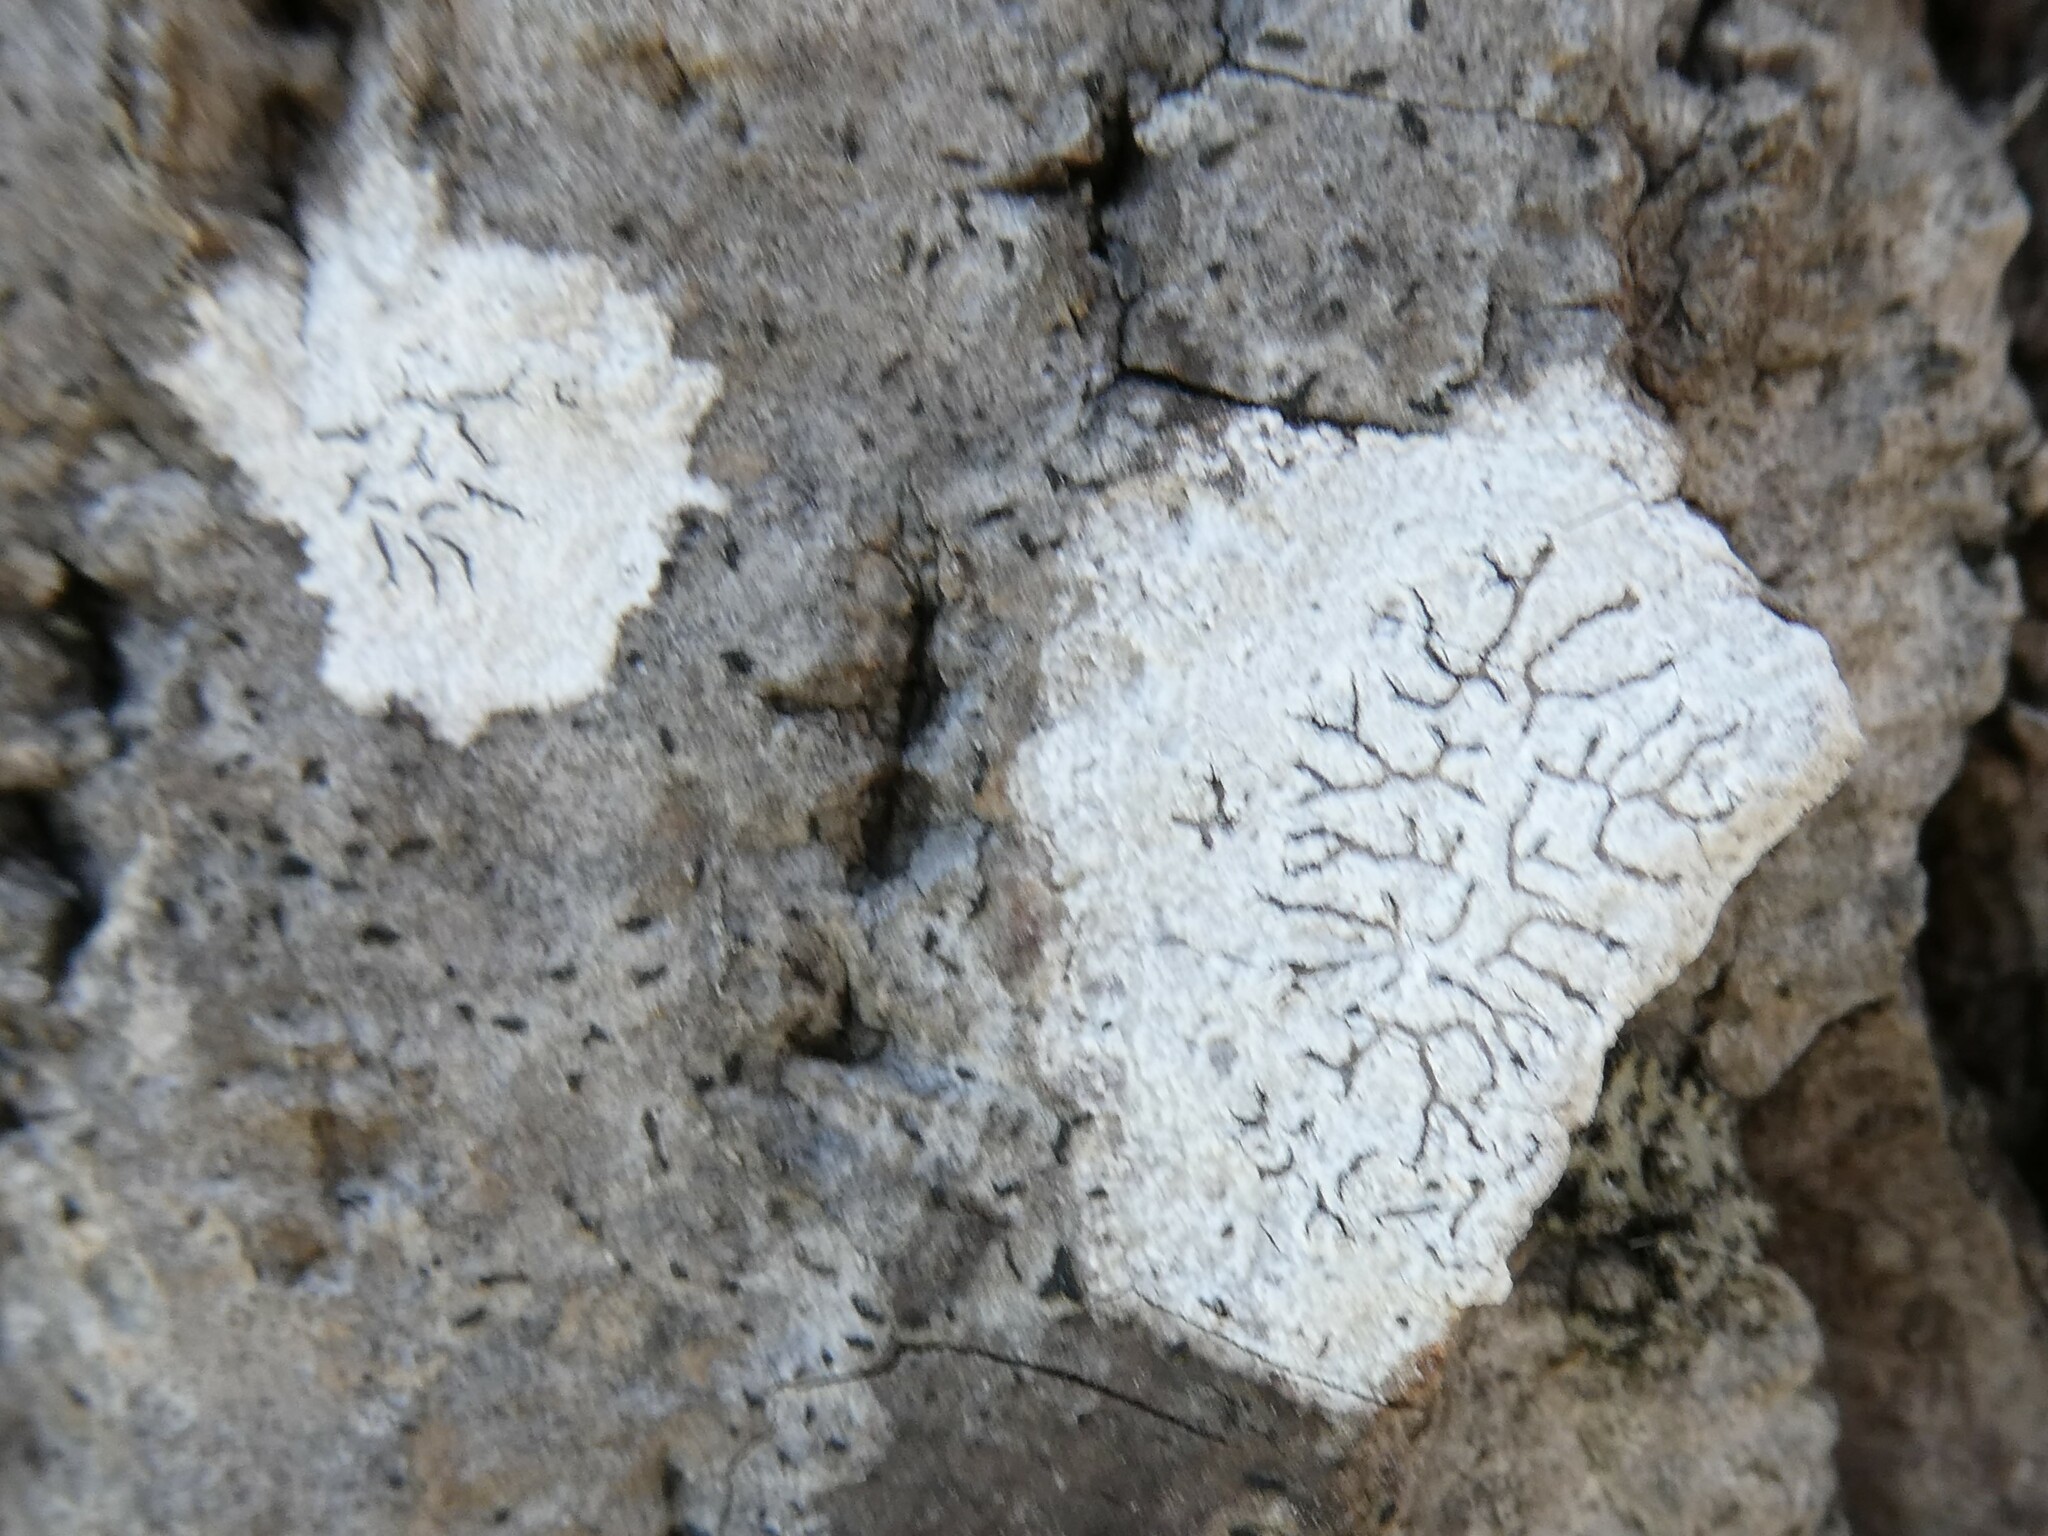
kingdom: Fungi
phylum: Ascomycota
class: Lecanoromycetes
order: Ostropales
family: Graphidaceae
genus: Graphis
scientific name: Graphis scripta
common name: Script lichen
